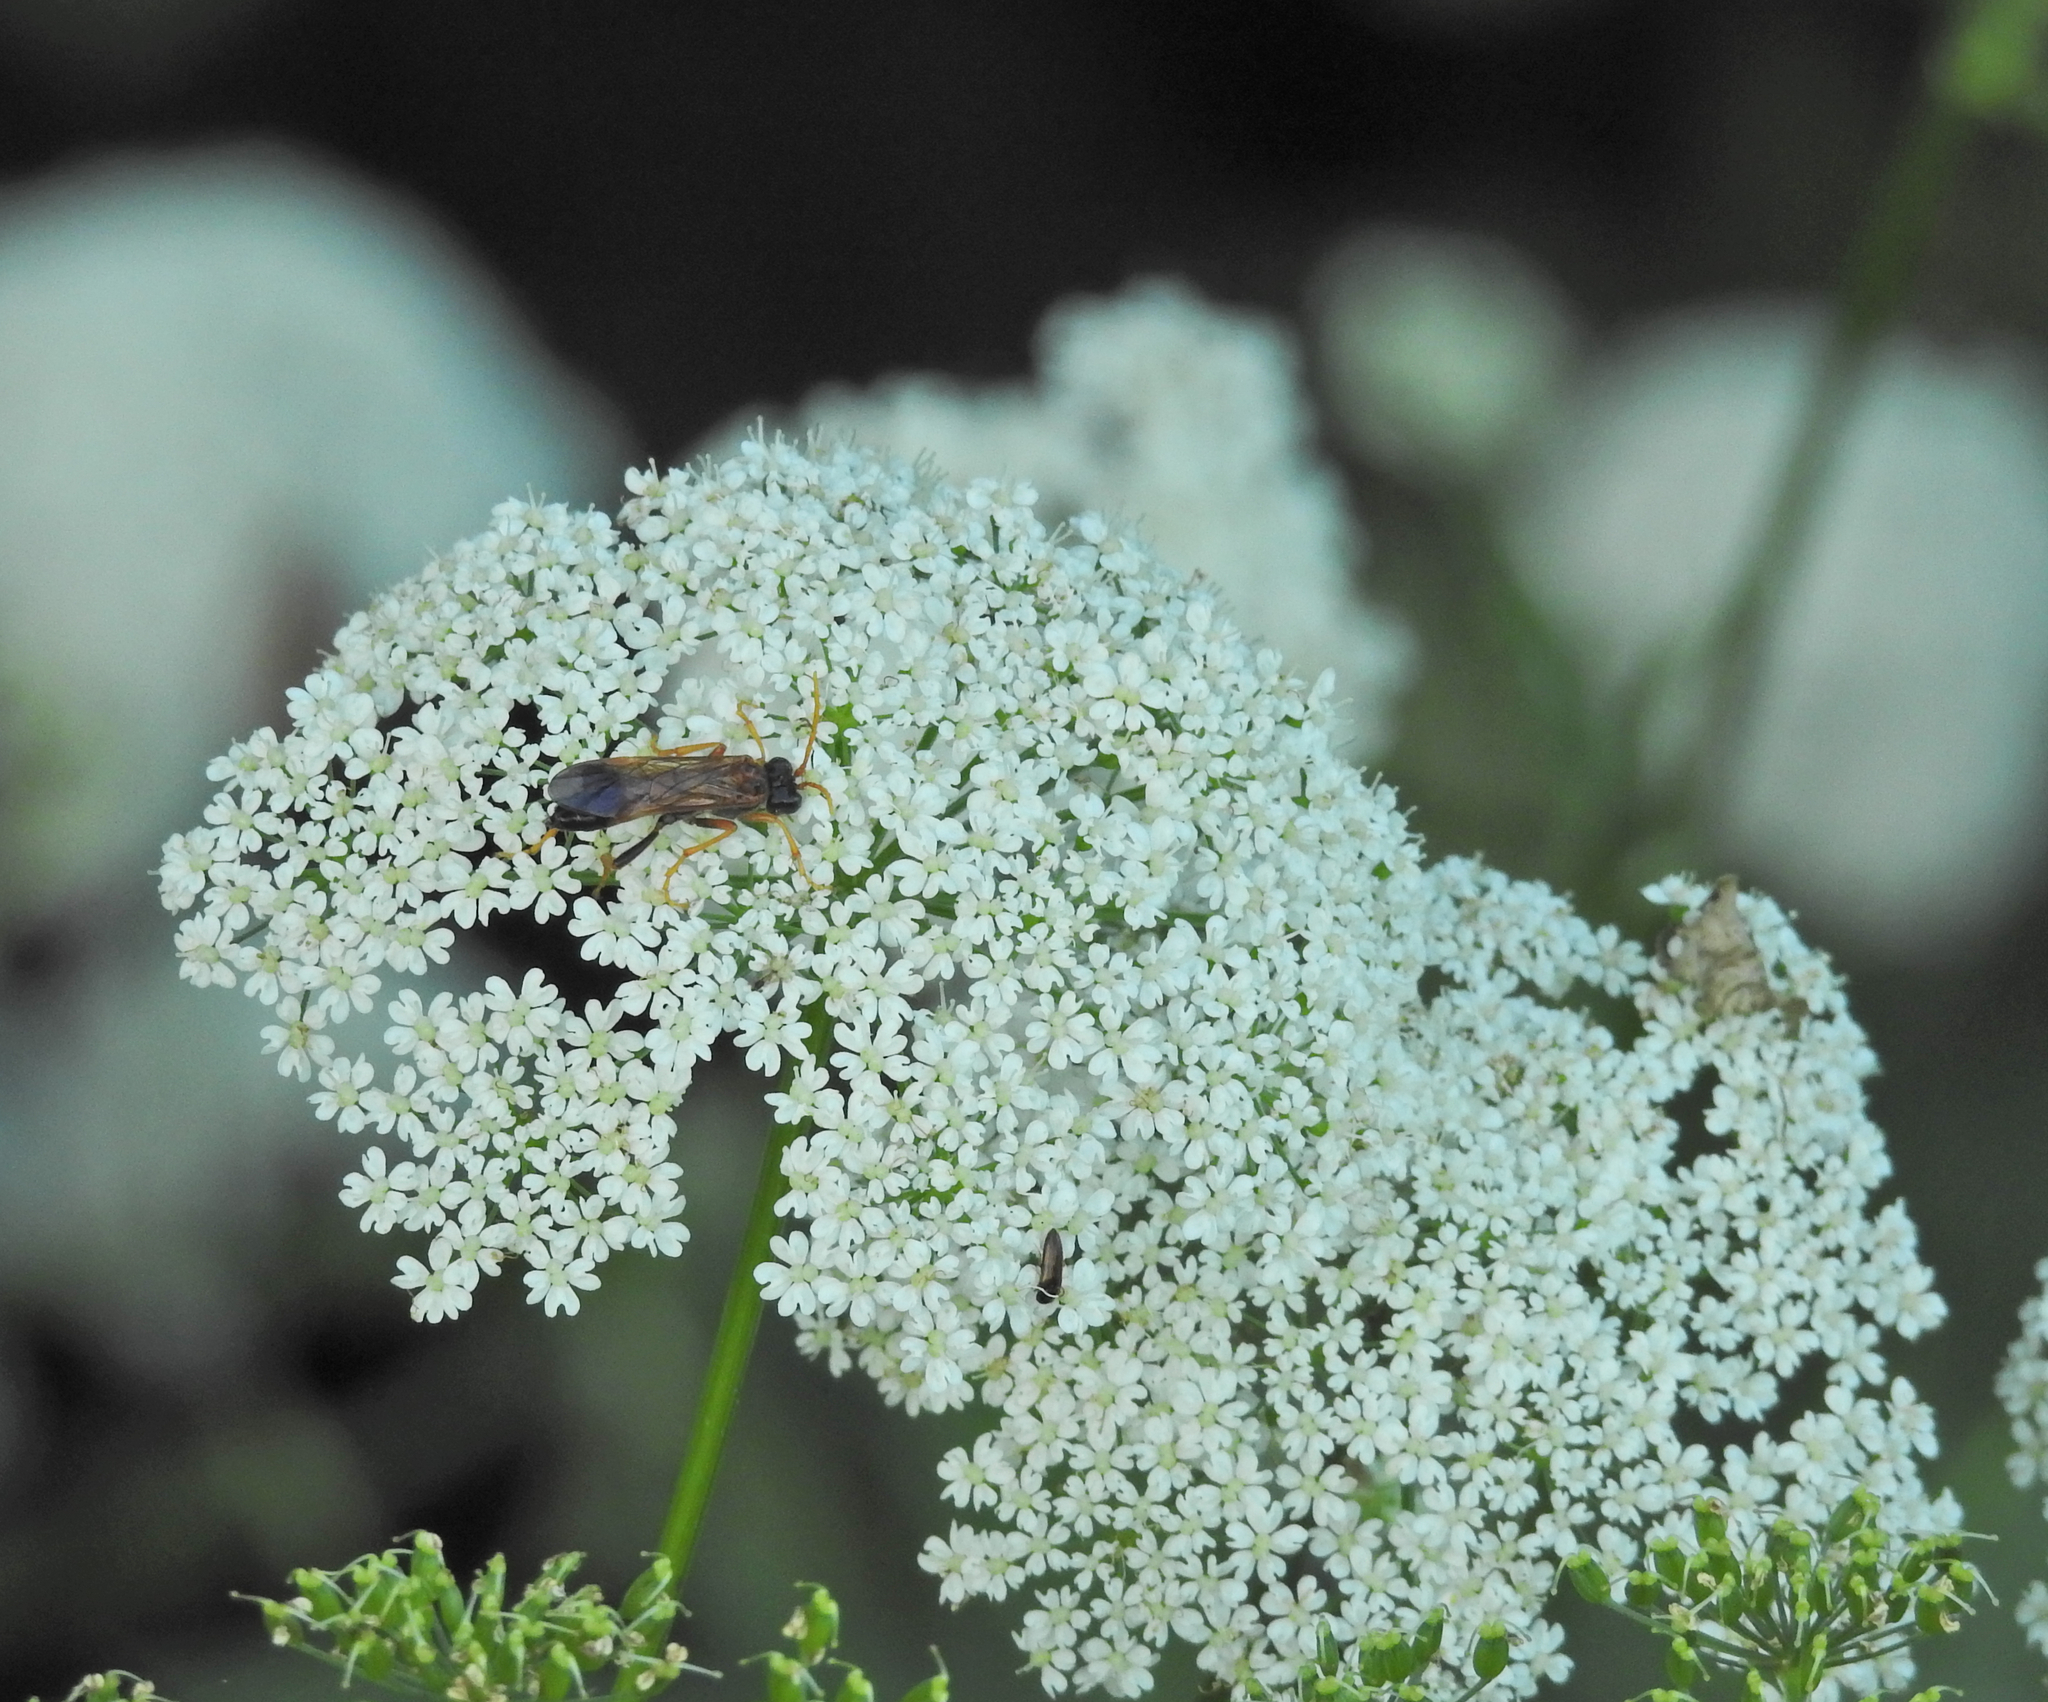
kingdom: Animalia
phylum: Arthropoda
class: Insecta
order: Hymenoptera
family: Tenthredinidae
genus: Tenthredo
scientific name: Tenthredo campestris
